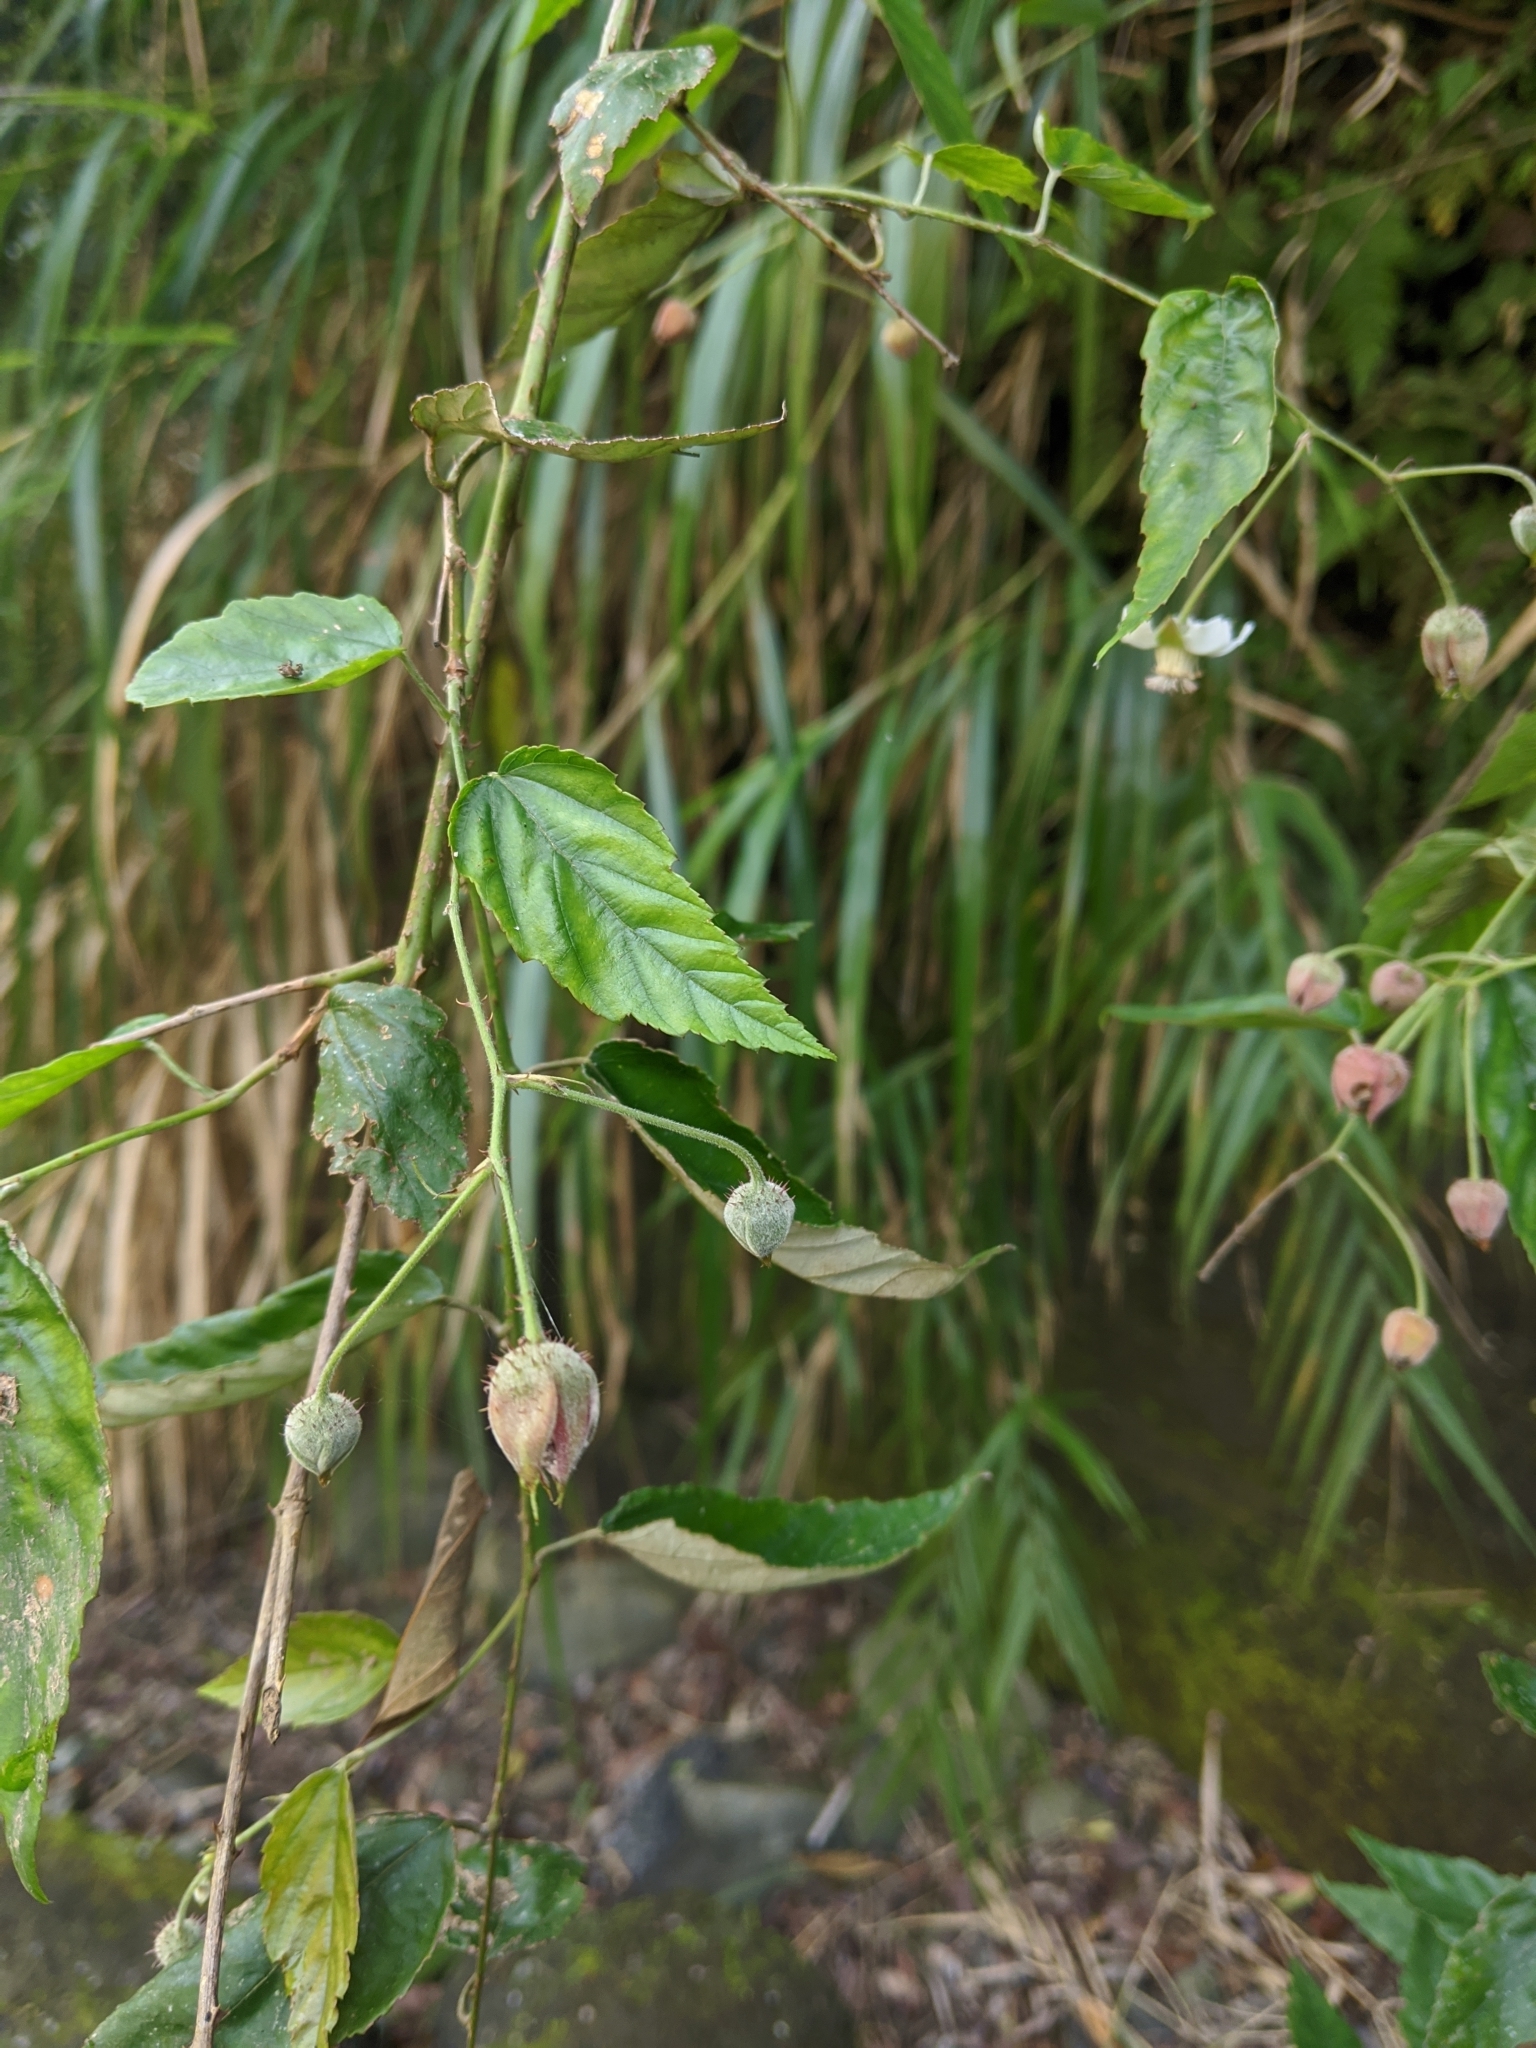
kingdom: Plantae
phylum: Tracheophyta
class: Magnoliopsida
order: Rosales
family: Rosaceae
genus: Rubus
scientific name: Rubus swinhoei
